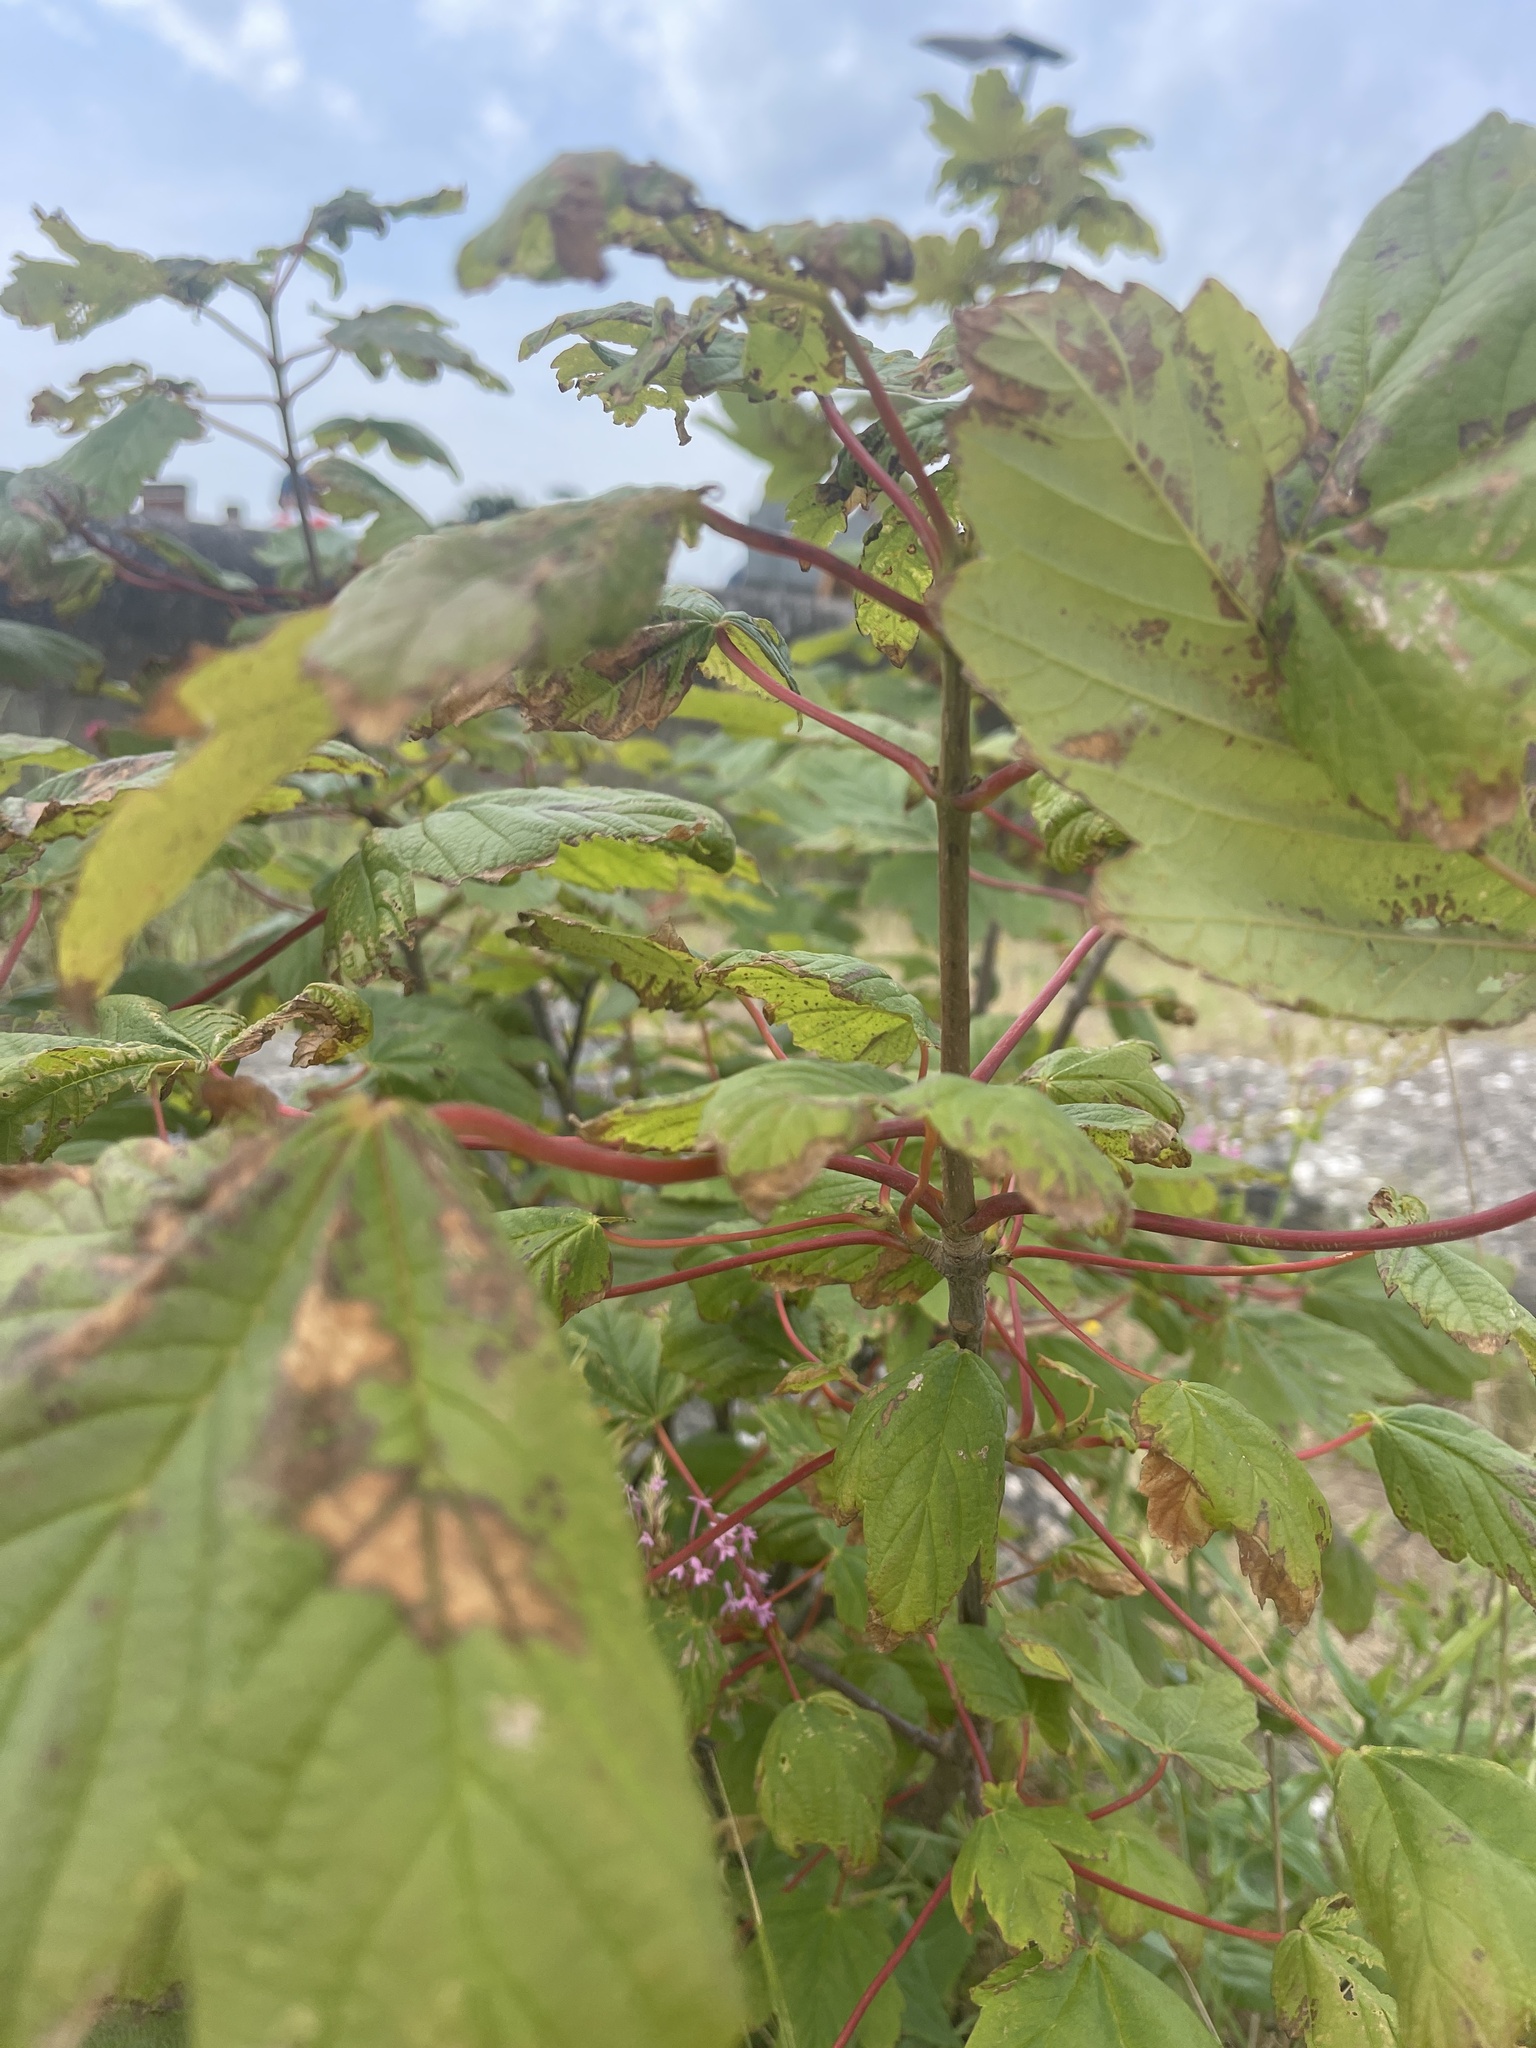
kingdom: Plantae
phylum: Tracheophyta
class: Magnoliopsida
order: Sapindales
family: Sapindaceae
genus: Acer
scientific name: Acer pseudoplatanus
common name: Sycamore
